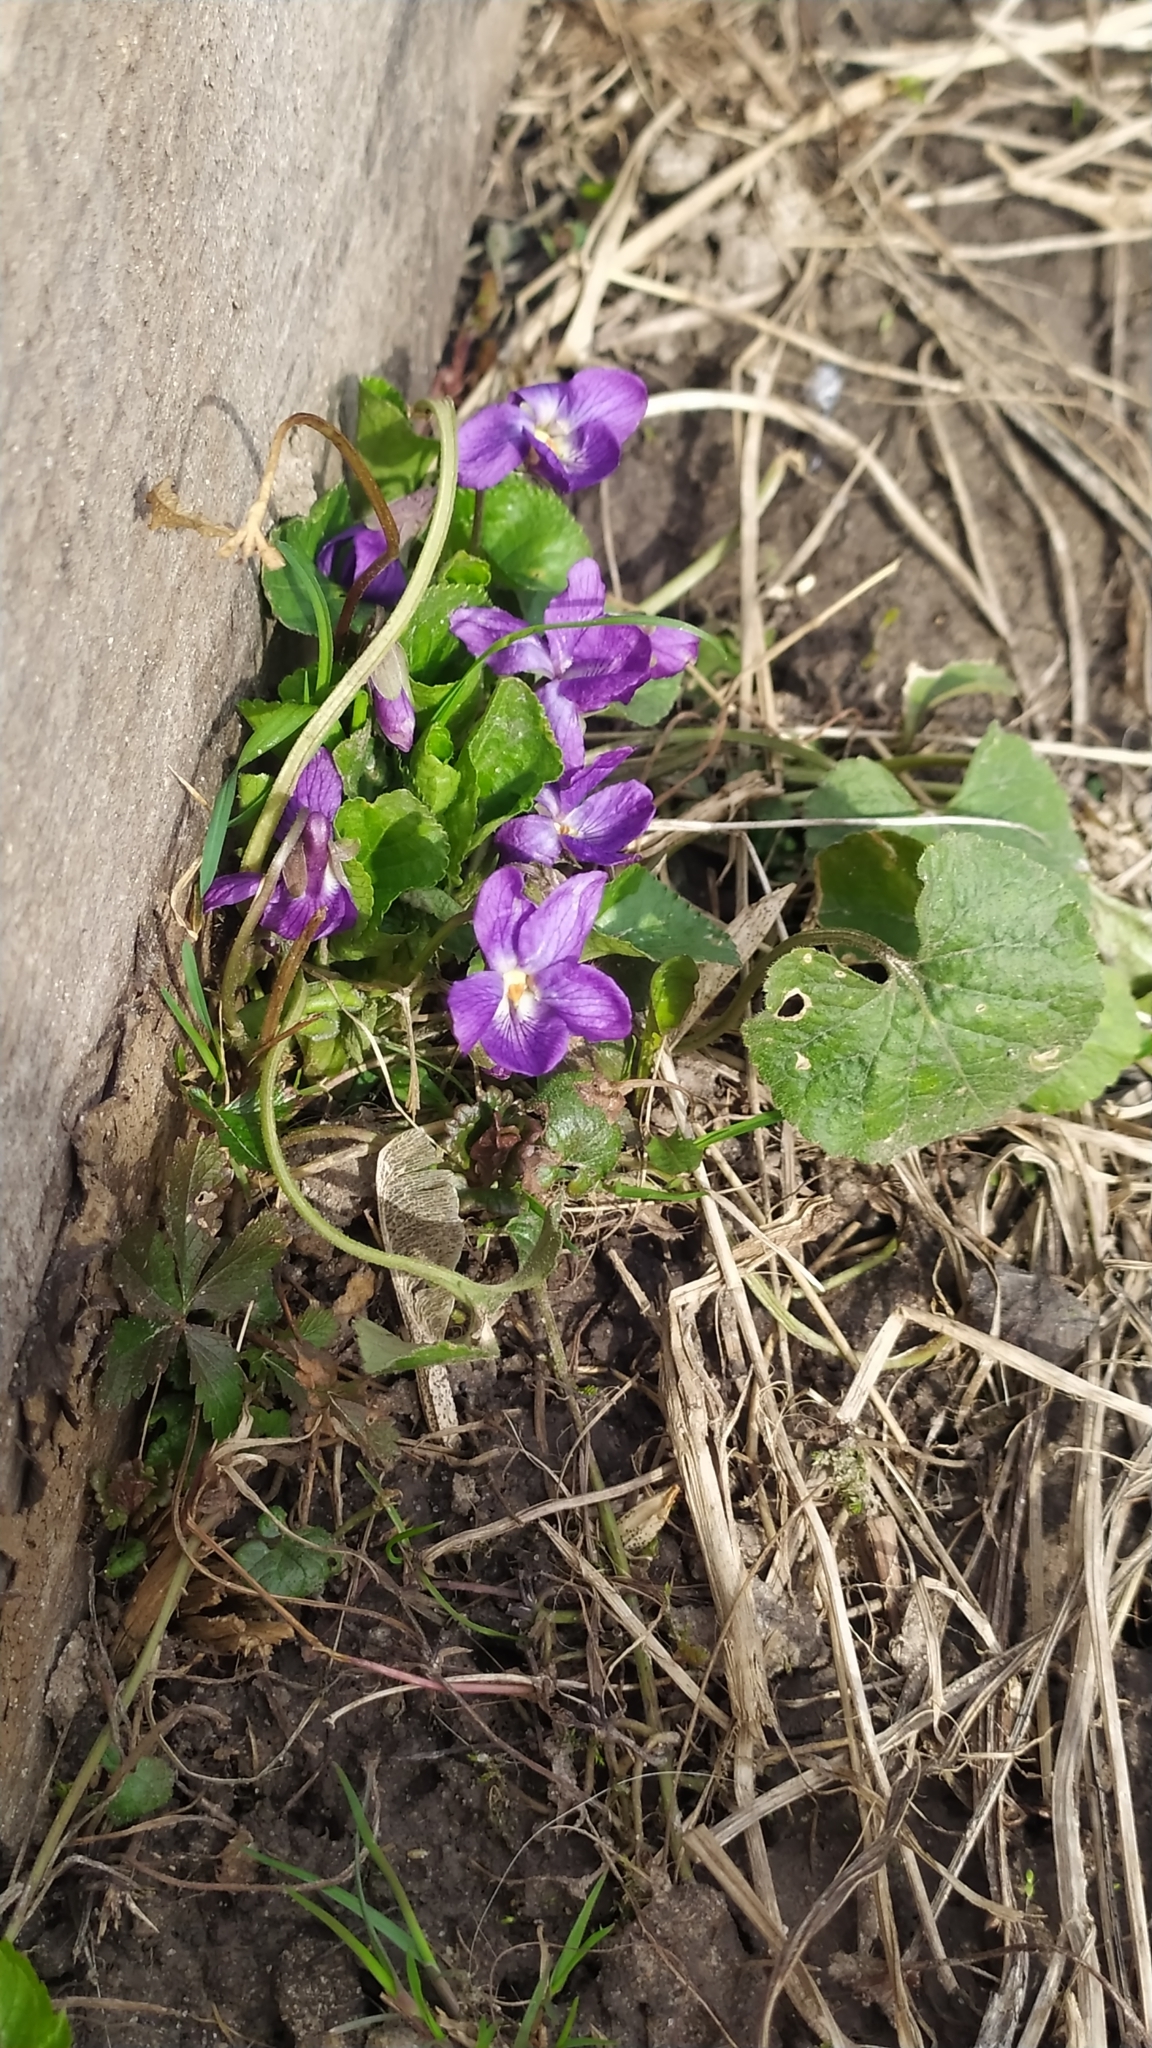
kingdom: Plantae
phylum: Tracheophyta
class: Magnoliopsida
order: Malpighiales
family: Violaceae
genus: Viola
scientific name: Viola odorata
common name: Sweet violet
